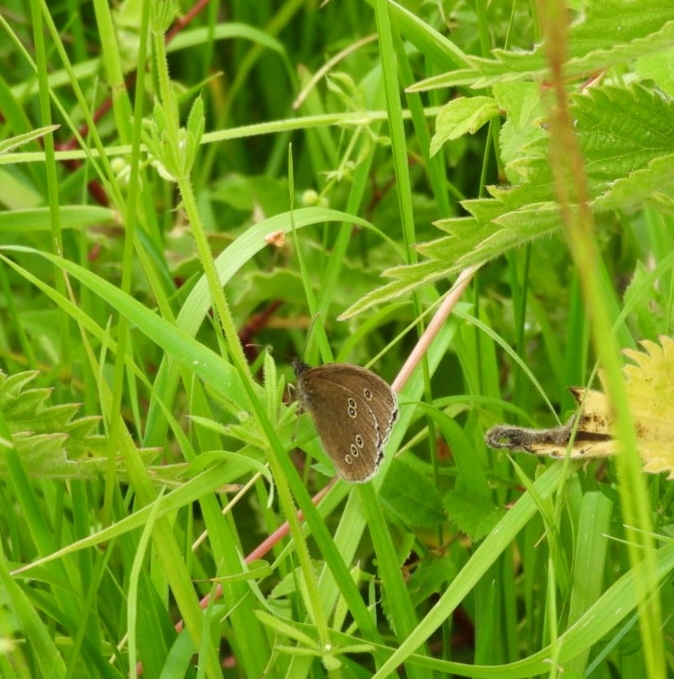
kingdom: Animalia
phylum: Arthropoda
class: Insecta
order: Lepidoptera
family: Nymphalidae
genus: Aphantopus
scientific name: Aphantopus hyperantus
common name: Ringlet
